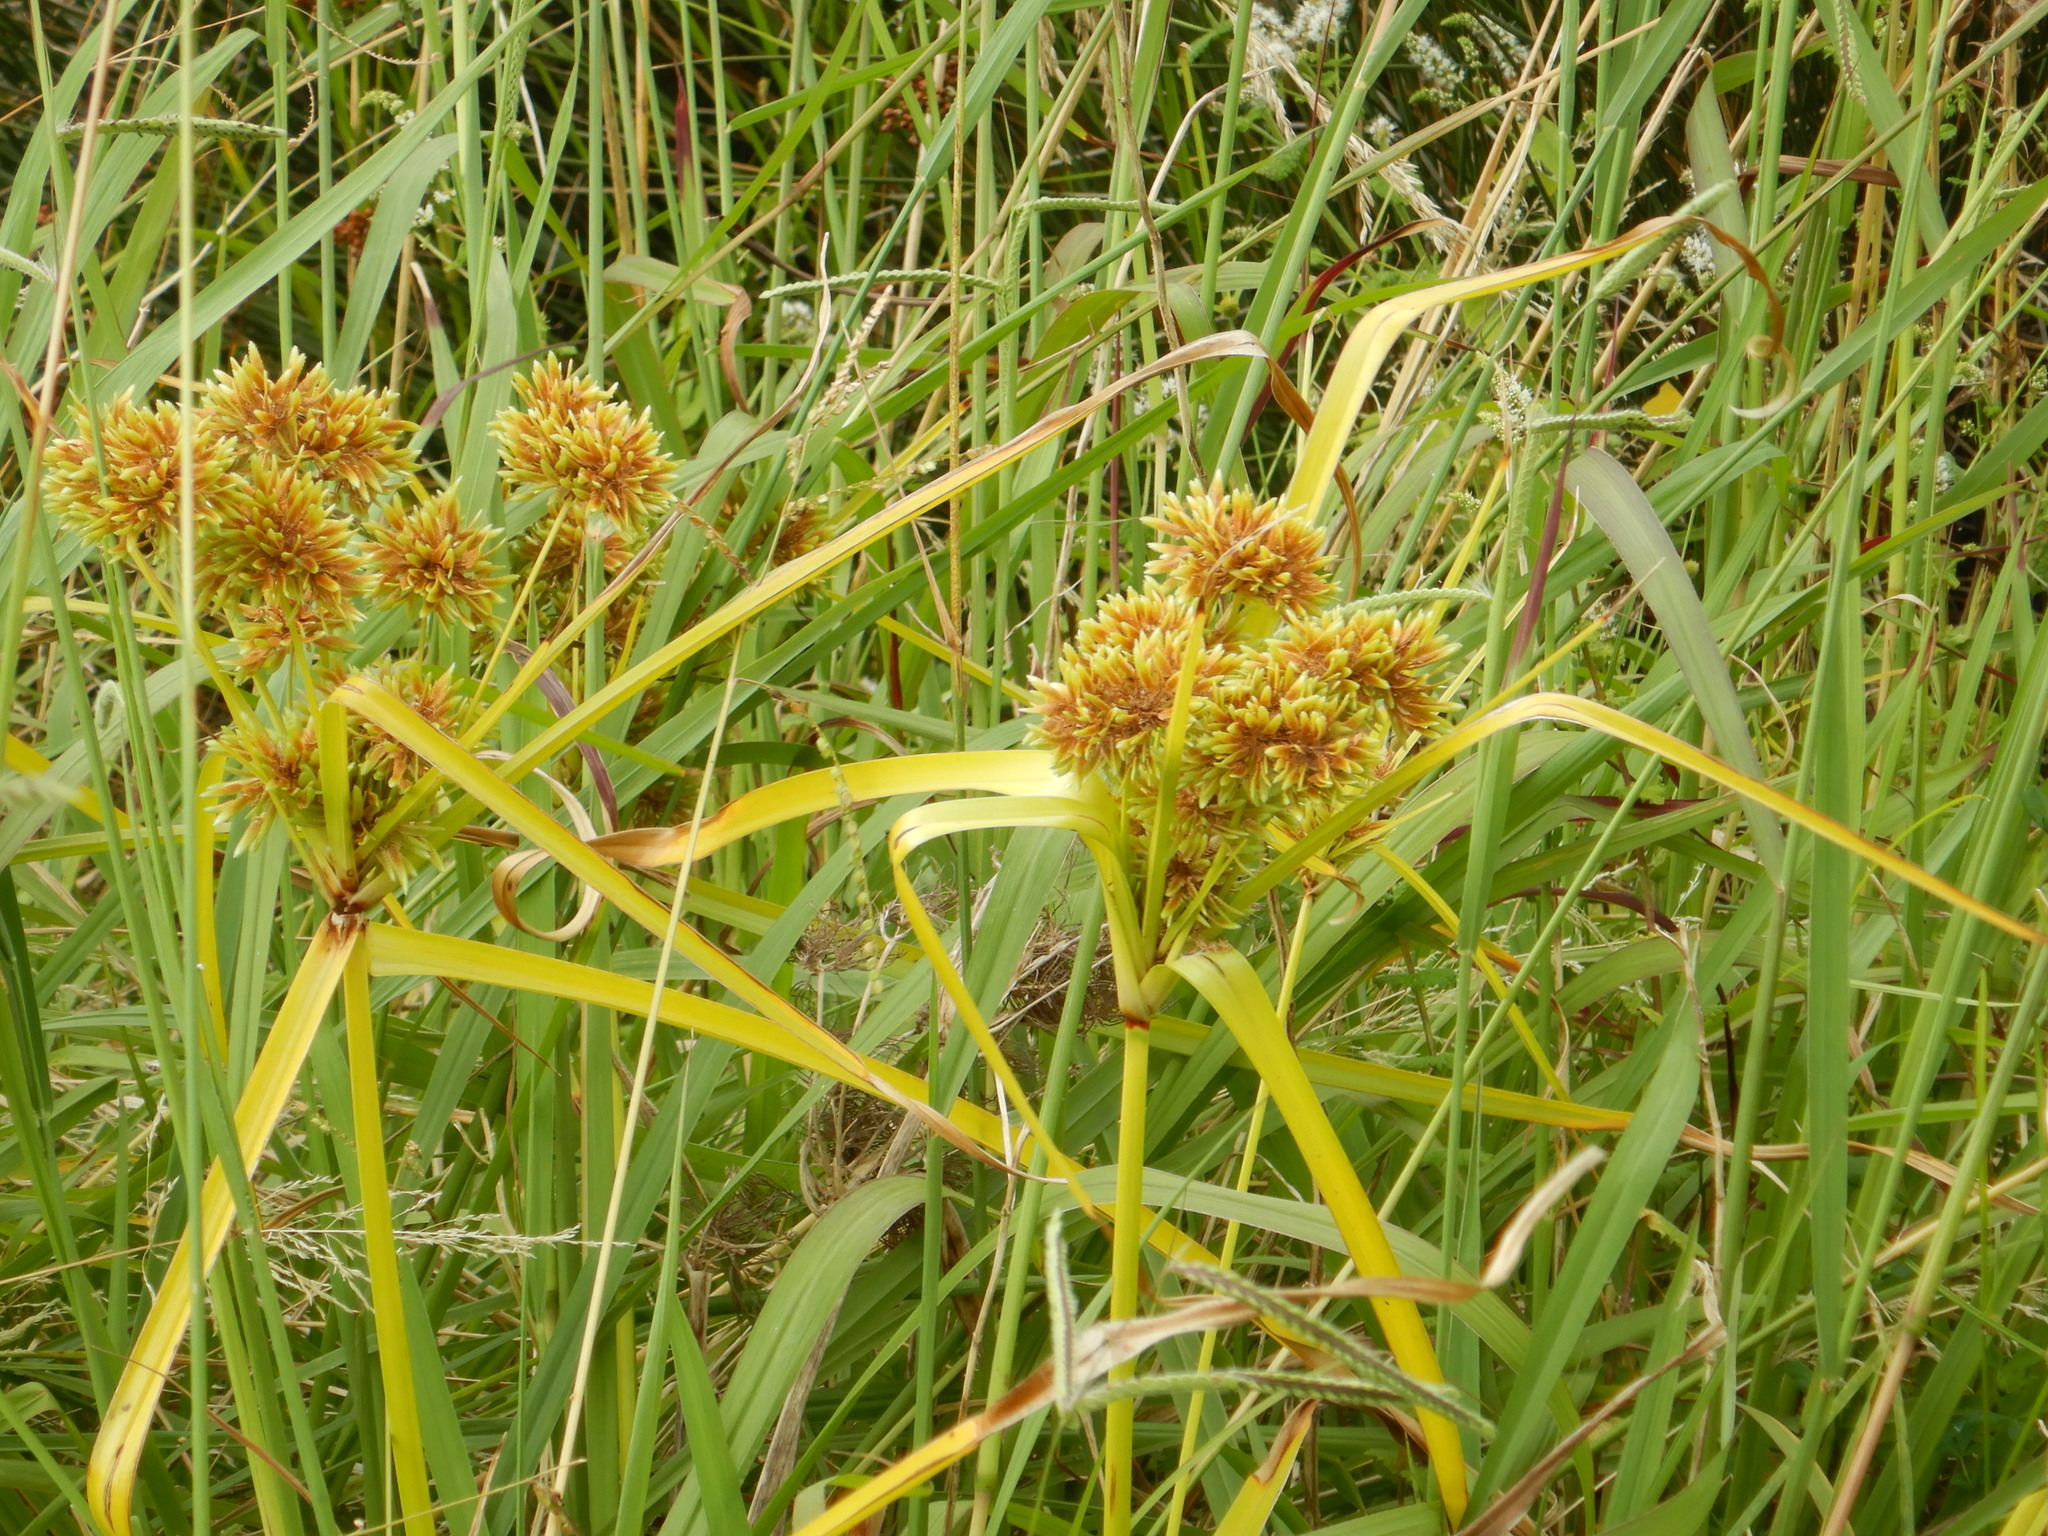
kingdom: Plantae
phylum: Tracheophyta
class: Liliopsida
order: Poales
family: Cyperaceae
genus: Cyperus
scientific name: Cyperus eragrostis
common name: Tall flatsedge
